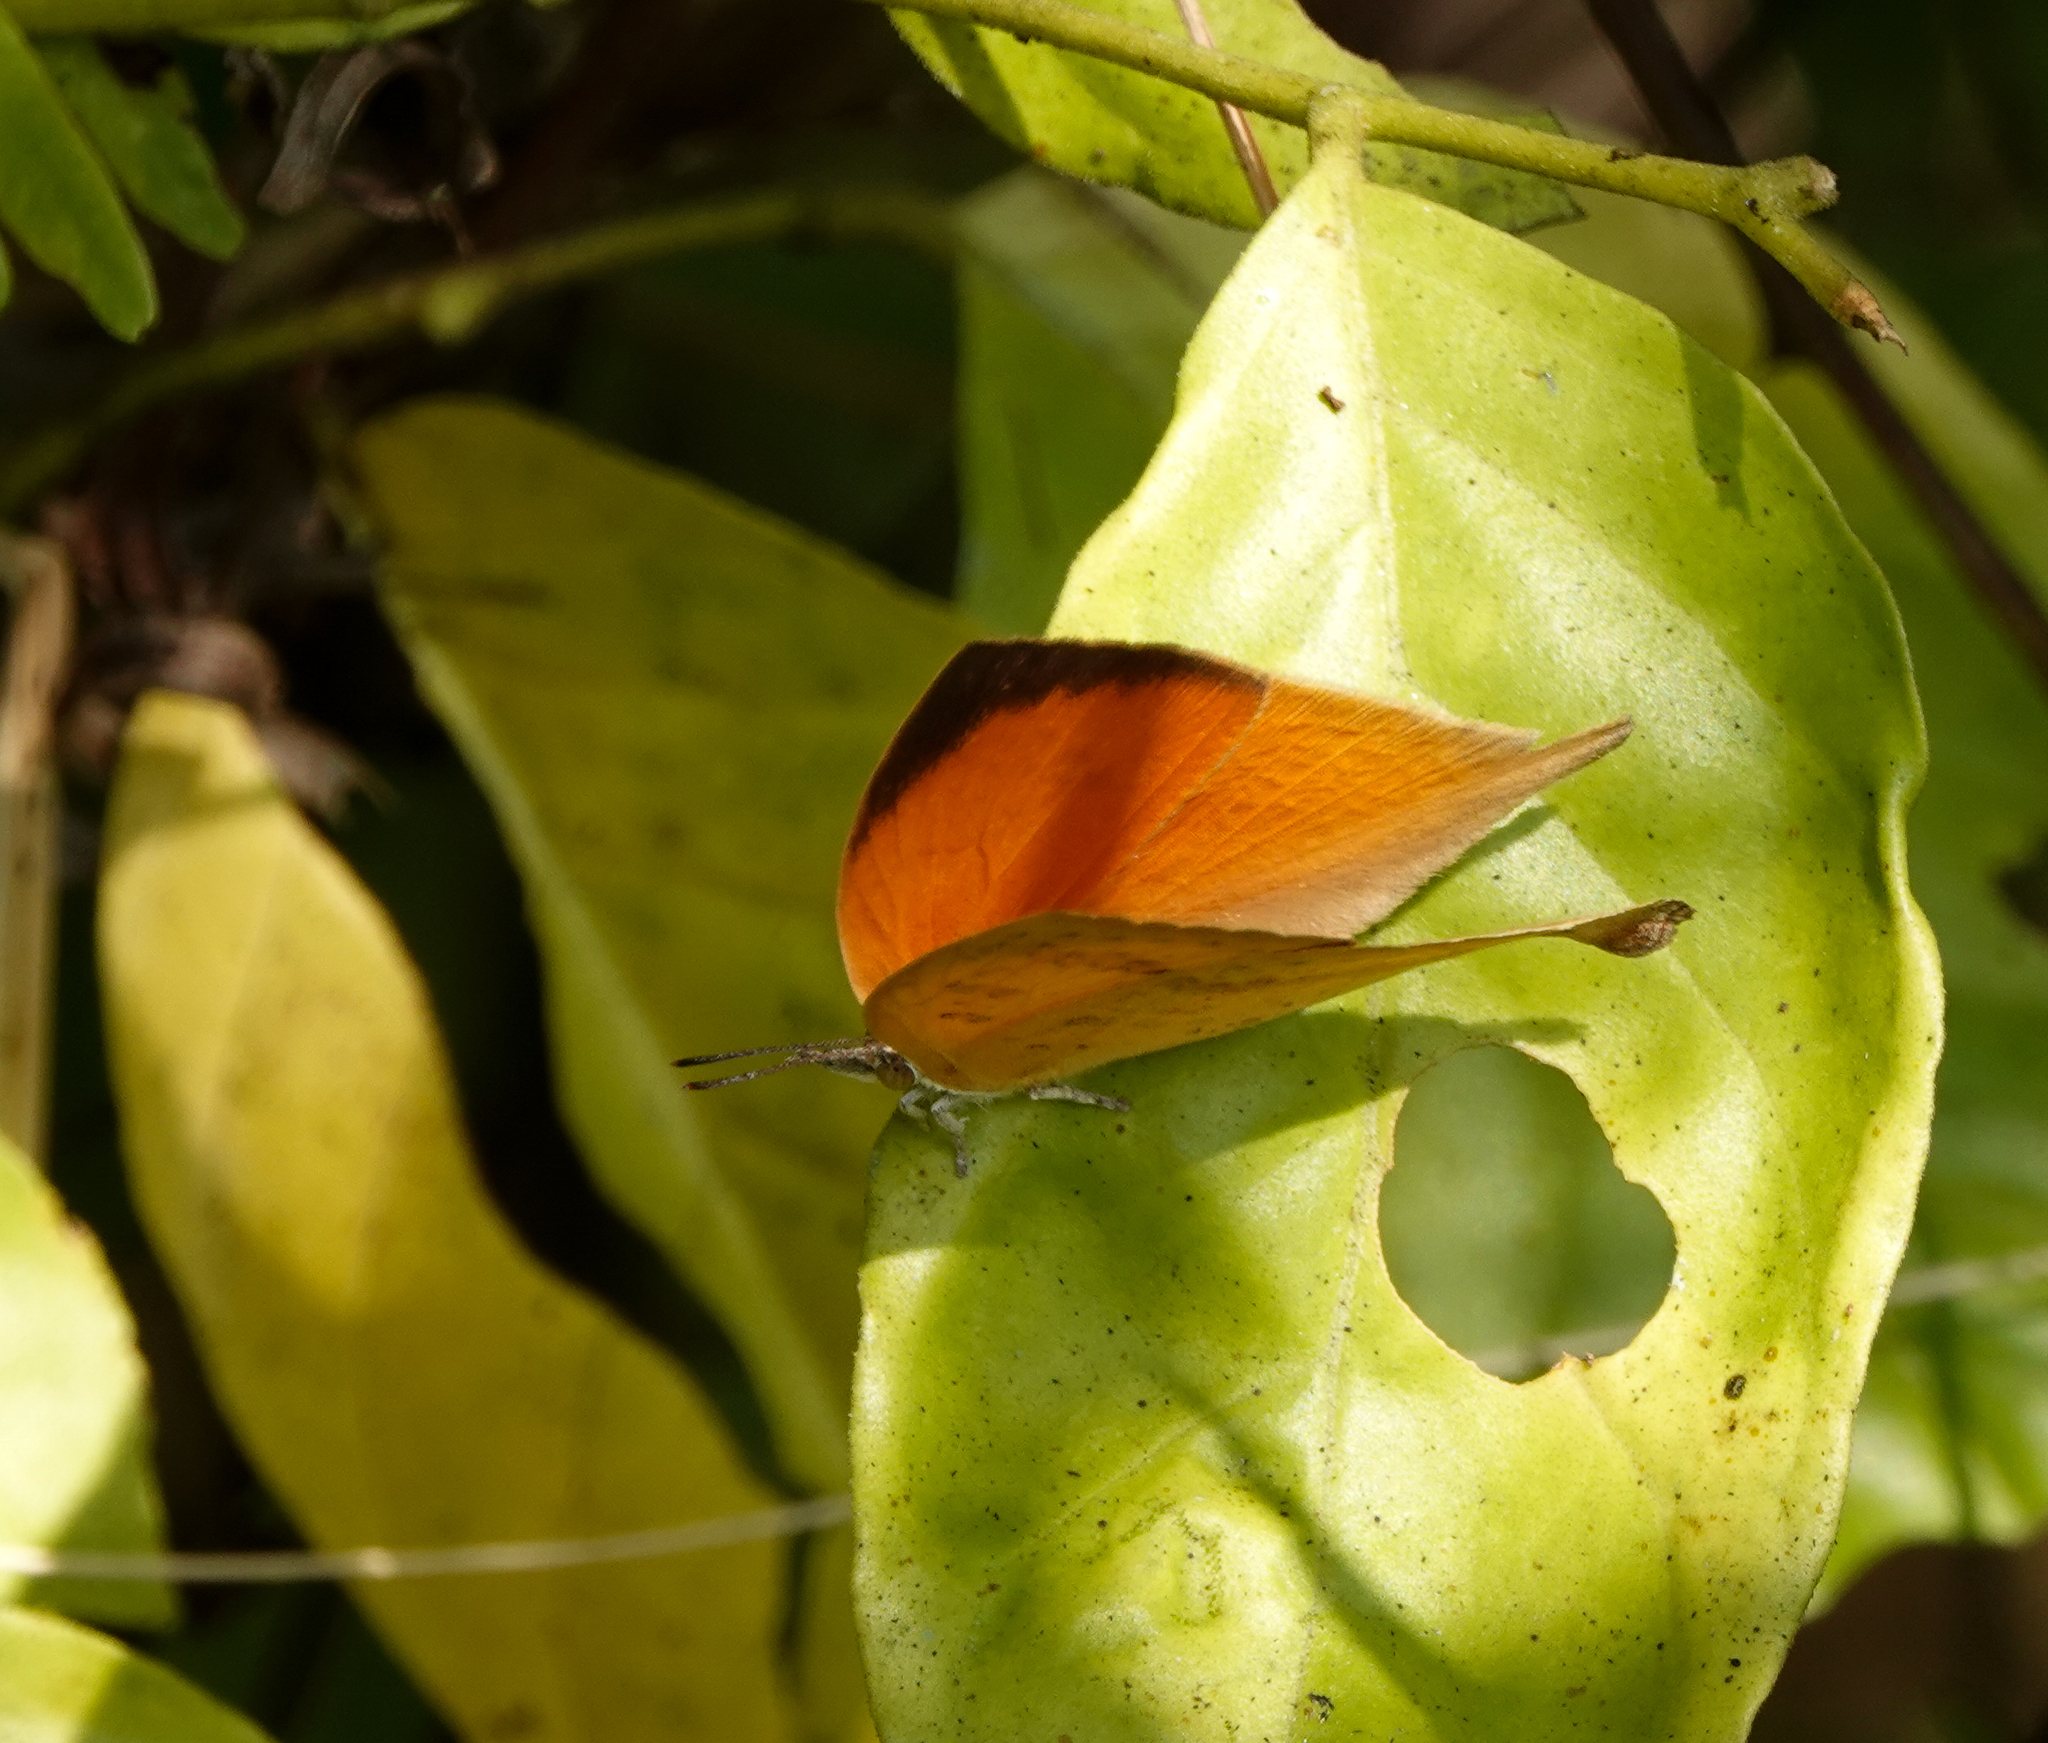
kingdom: Animalia
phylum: Arthropoda
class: Insecta
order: Lepidoptera
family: Lycaenidae
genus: Loxura
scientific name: Loxura atymnus
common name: Common yamfly
